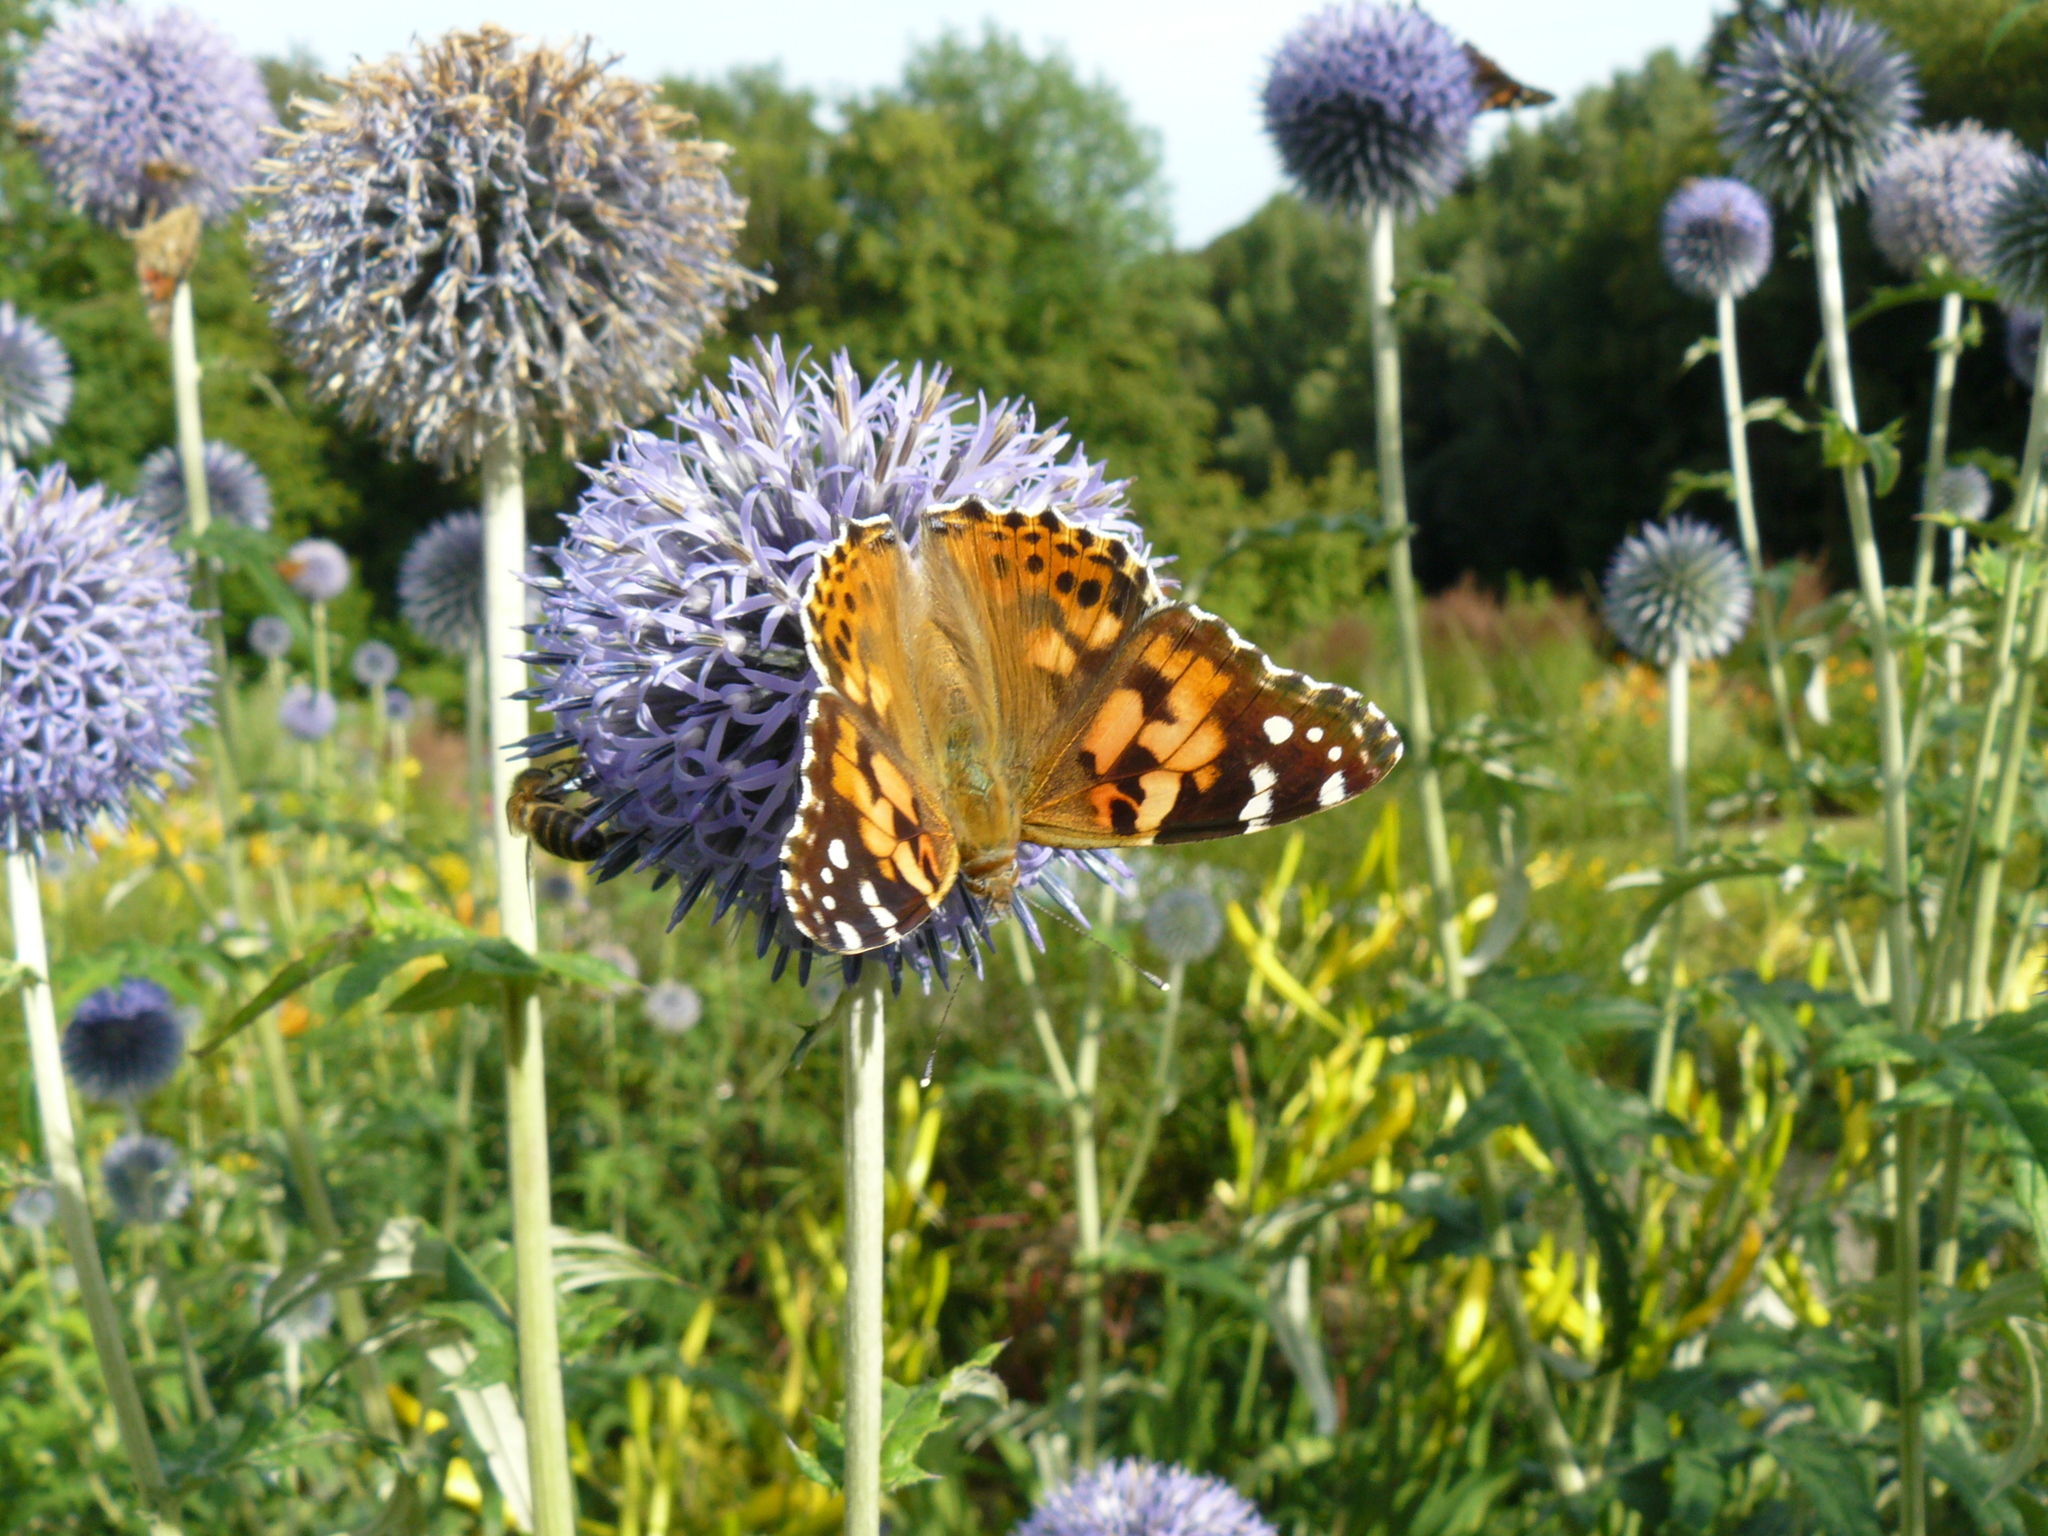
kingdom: Animalia
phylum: Arthropoda
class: Insecta
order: Lepidoptera
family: Nymphalidae
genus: Vanessa
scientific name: Vanessa cardui
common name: Painted lady
